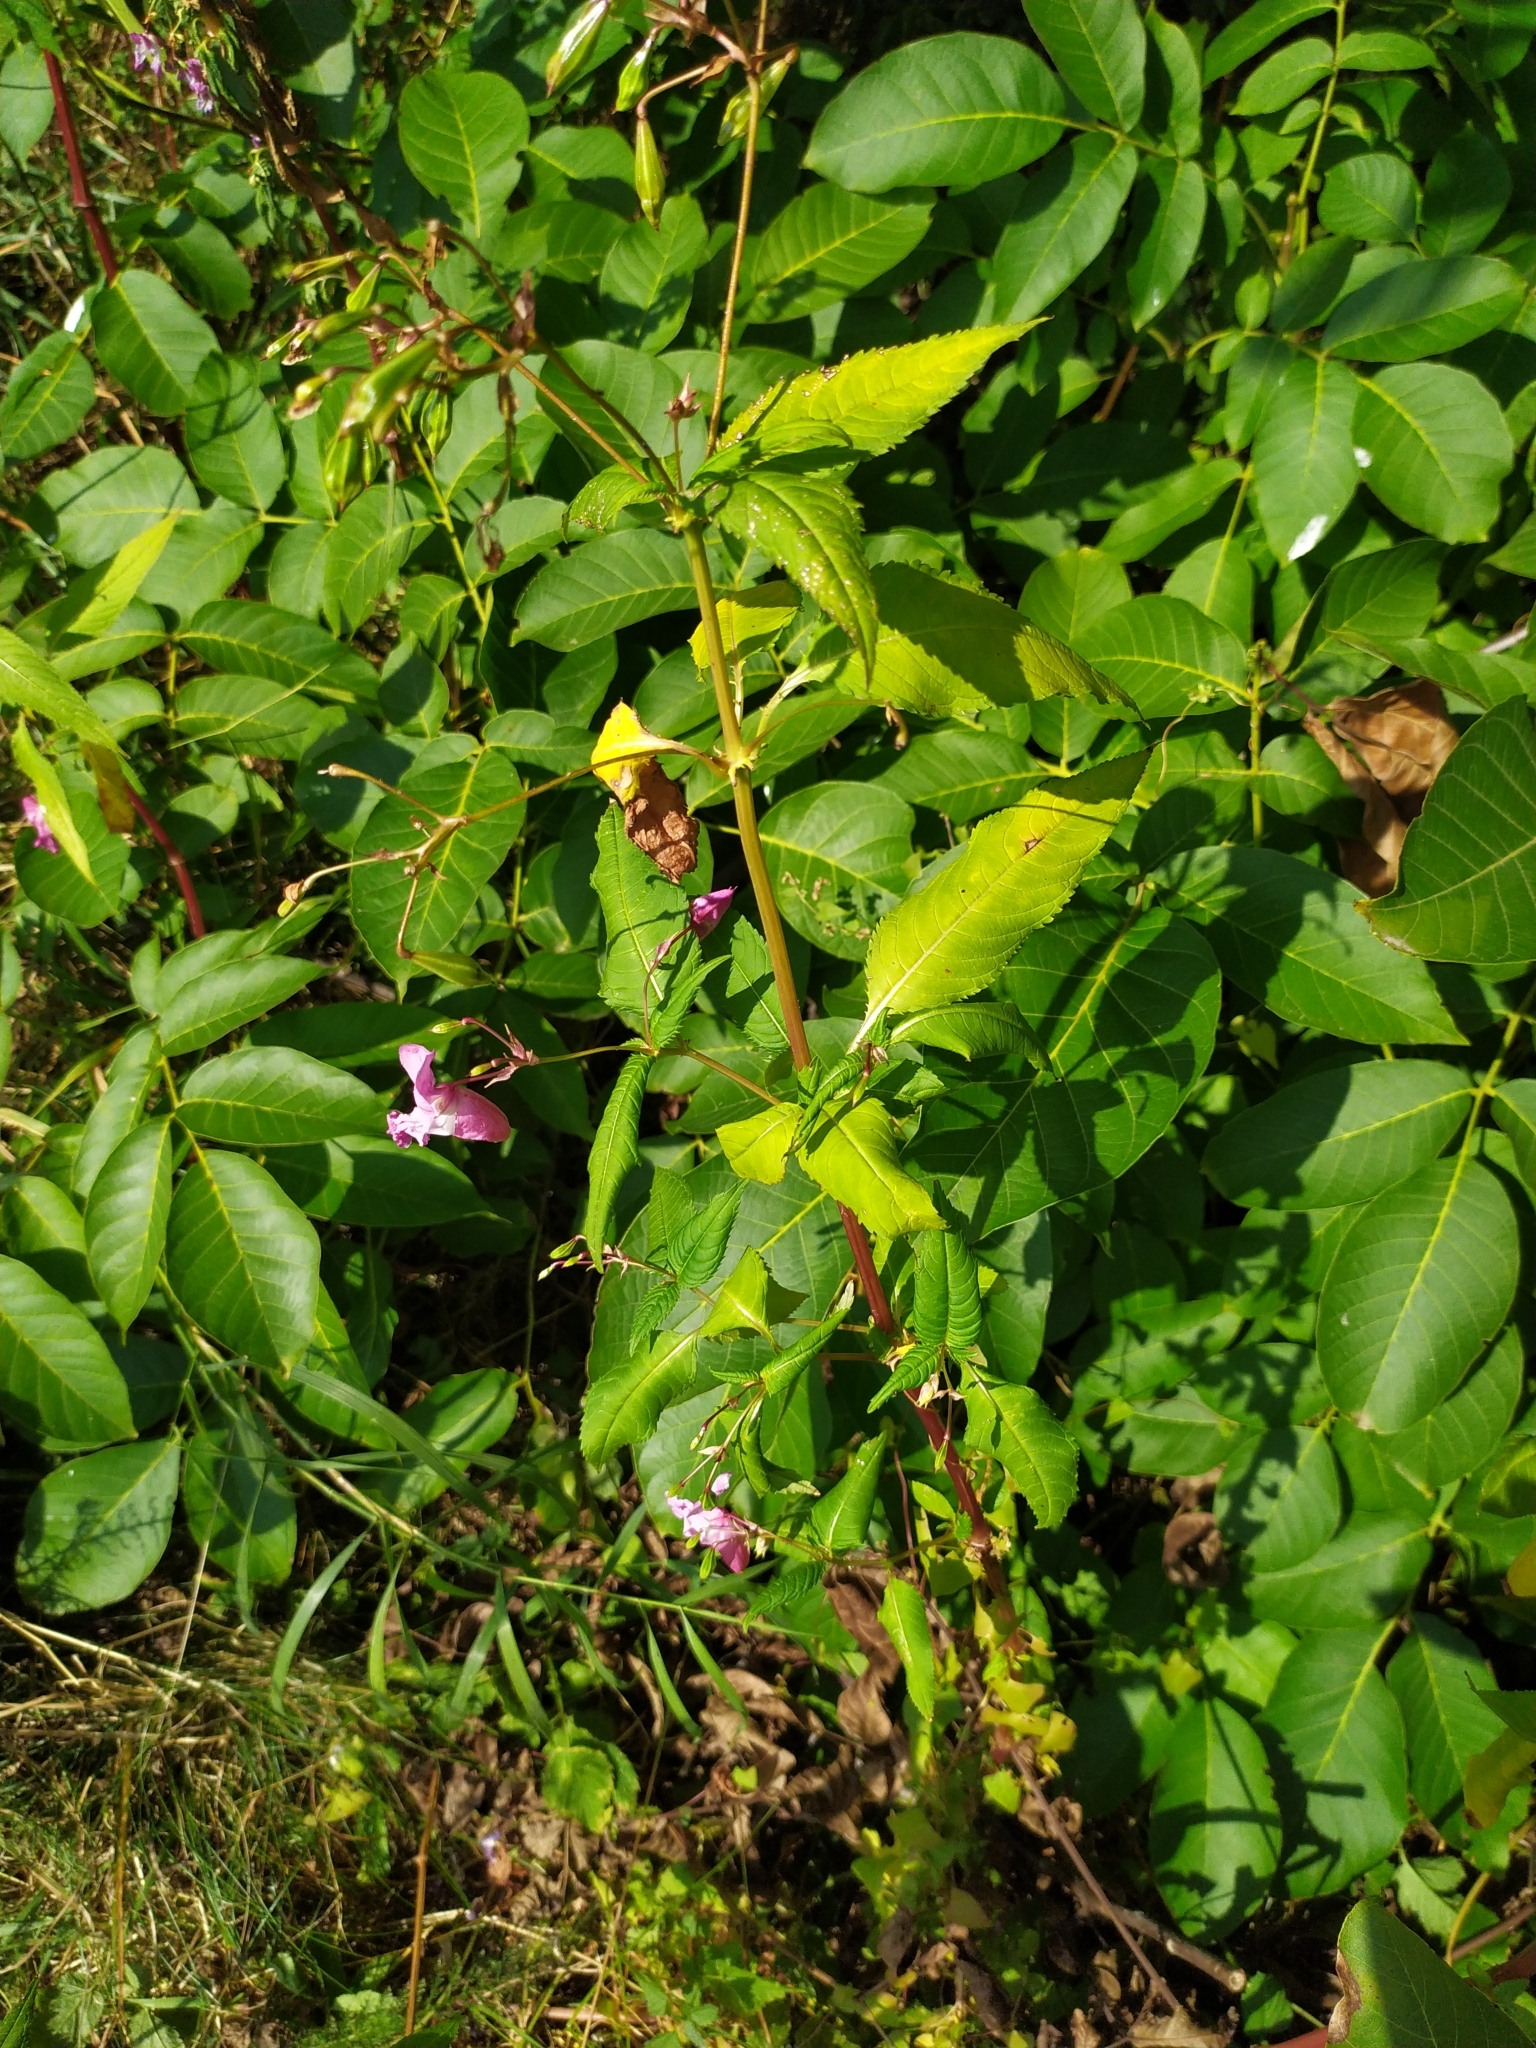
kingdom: Plantae
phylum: Tracheophyta
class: Magnoliopsida
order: Ericales
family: Balsaminaceae
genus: Impatiens
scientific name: Impatiens glandulifera
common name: Himalayan balsam
